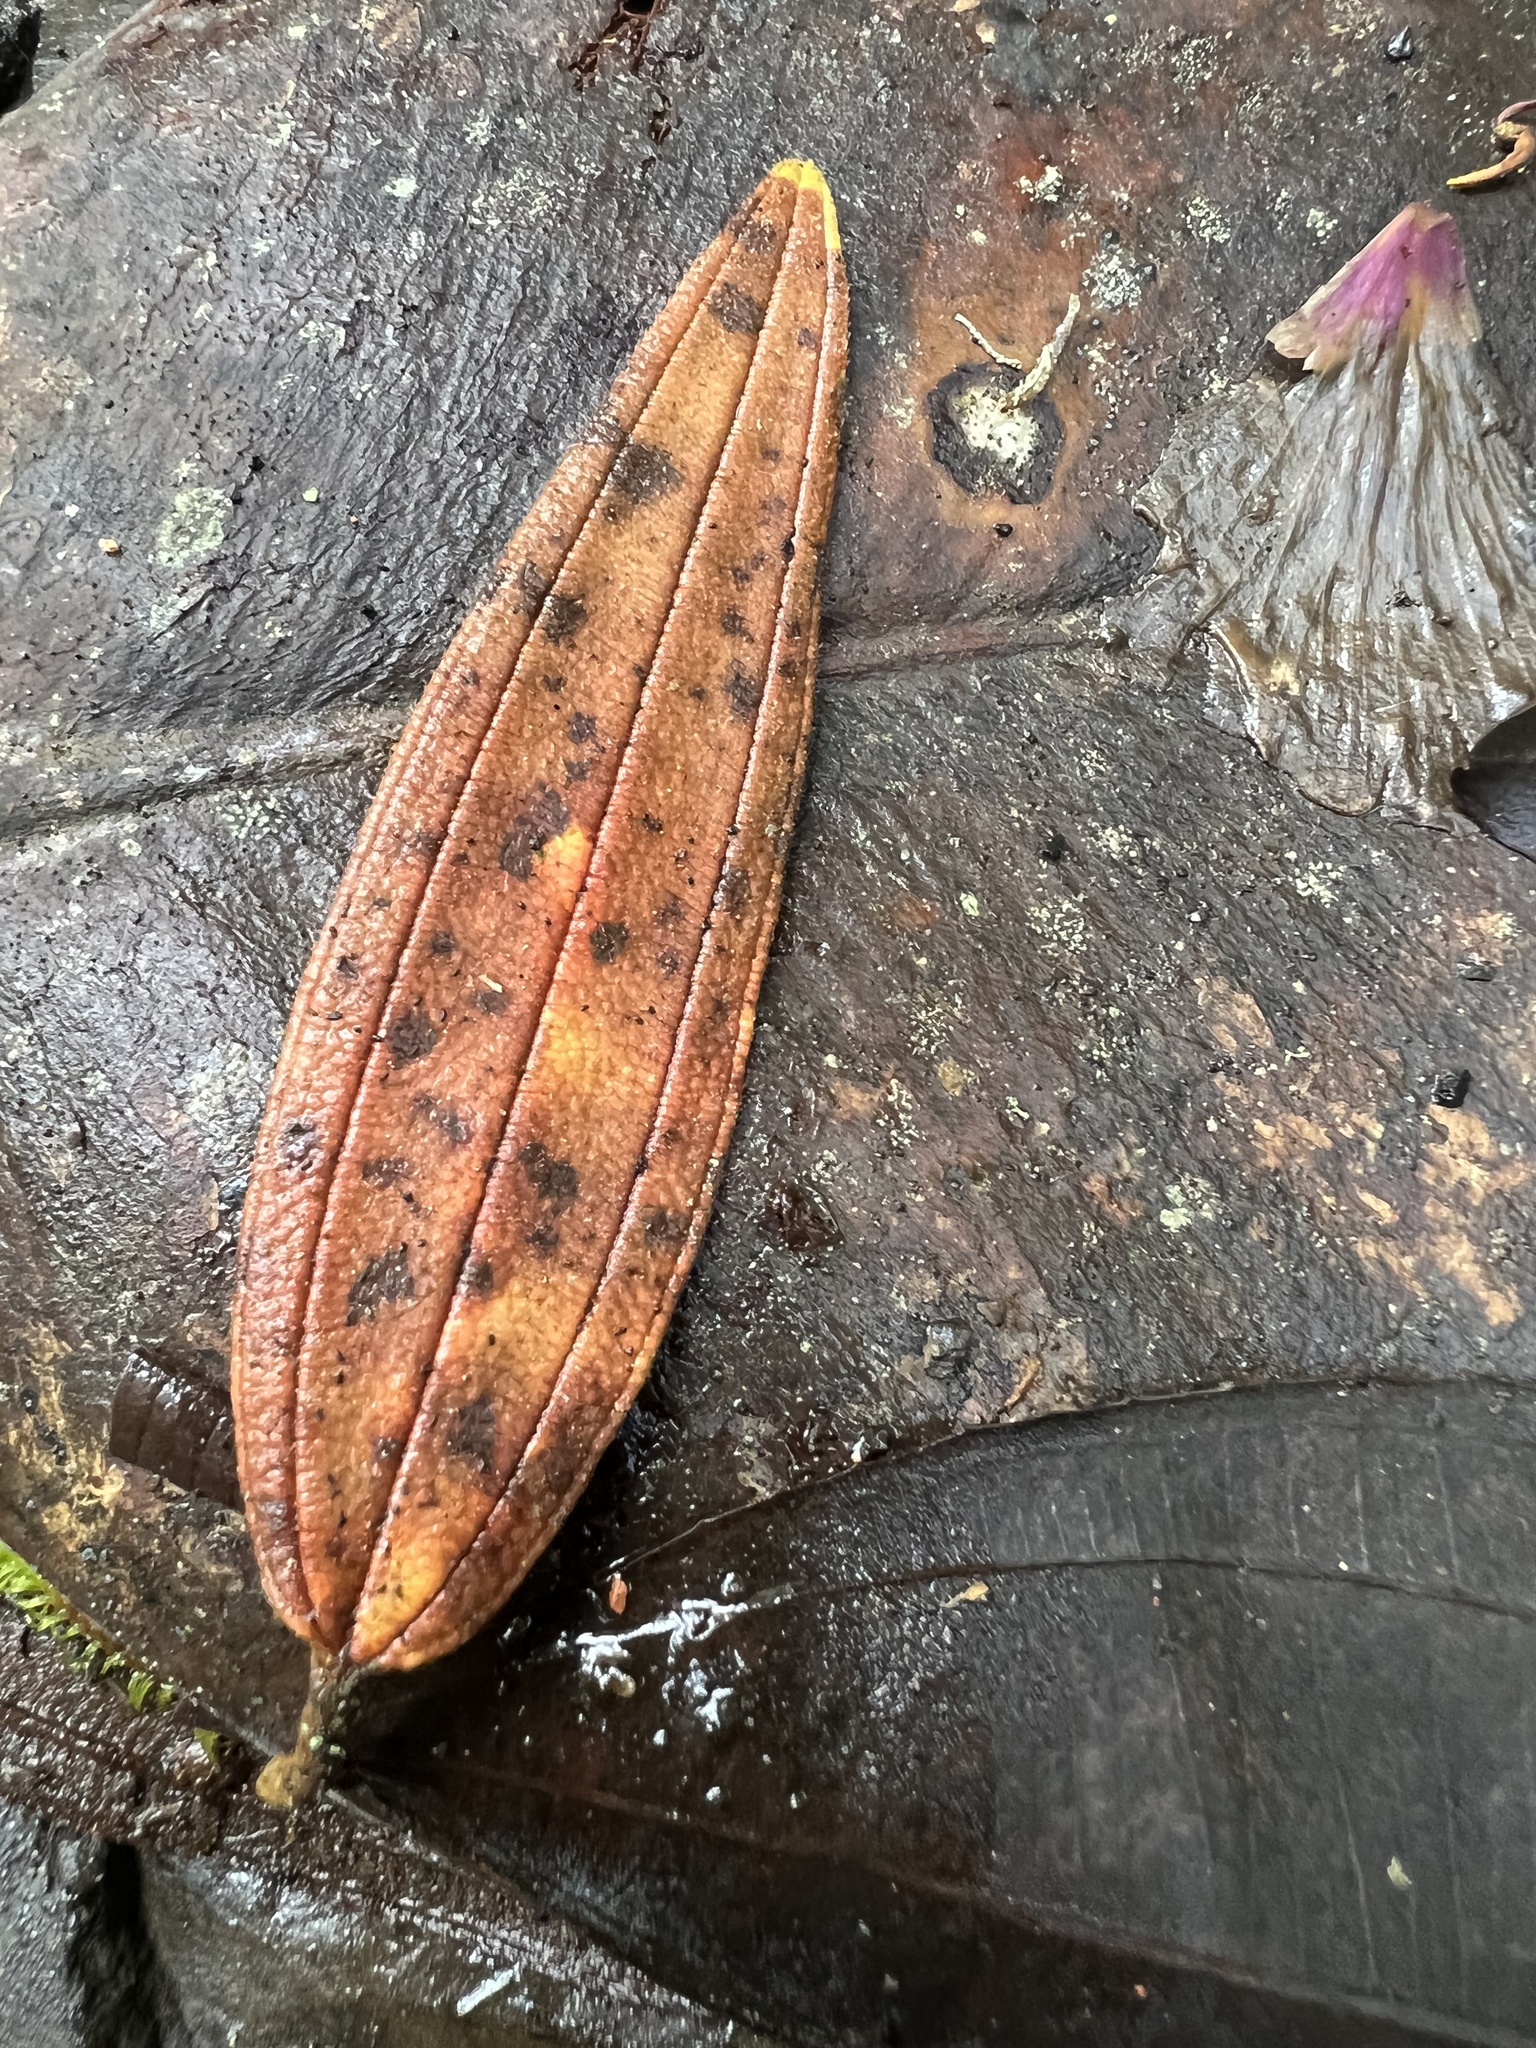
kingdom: Plantae
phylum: Tracheophyta
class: Magnoliopsida
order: Myrtales
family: Melastomataceae
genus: Andesanthus
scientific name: Andesanthus lepidotus
